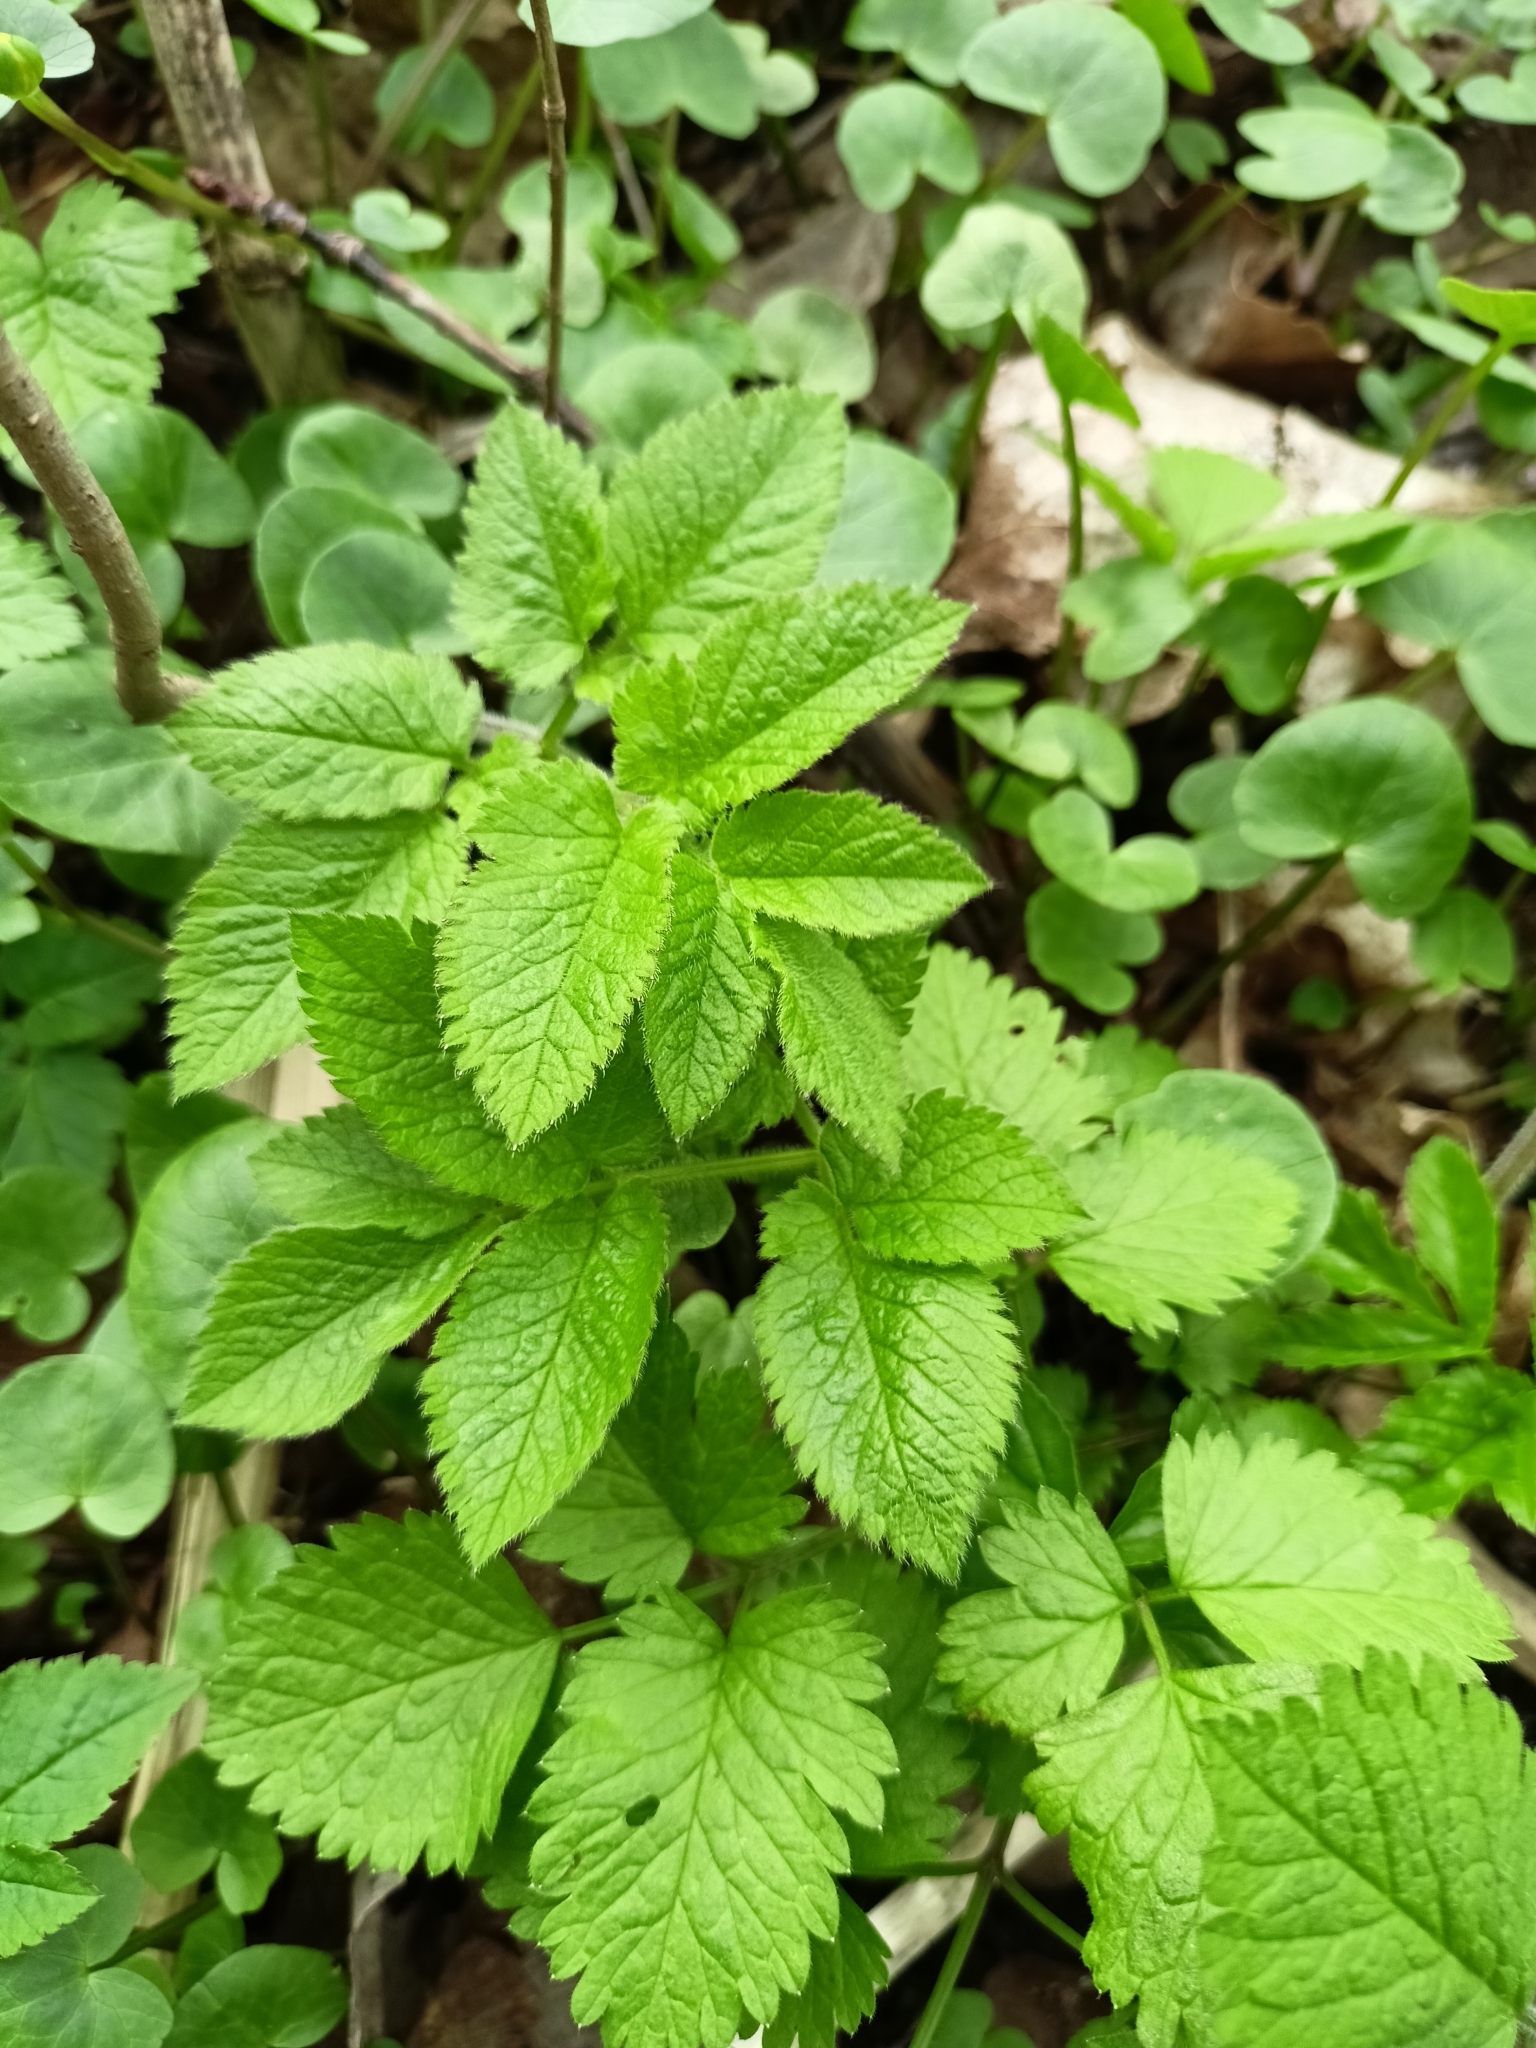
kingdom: Plantae
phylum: Tracheophyta
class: Magnoliopsida
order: Apiales
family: Apiaceae
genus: Chaerophyllum
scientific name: Chaerophyllum aromaticum
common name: Broadleaf chervil
